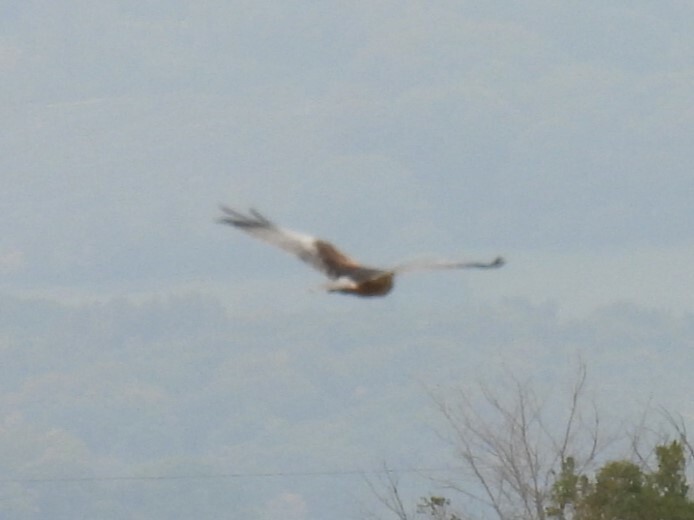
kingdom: Animalia
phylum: Chordata
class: Aves
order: Accipitriformes
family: Accipitridae
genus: Circus
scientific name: Circus aeruginosus
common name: Western marsh harrier
